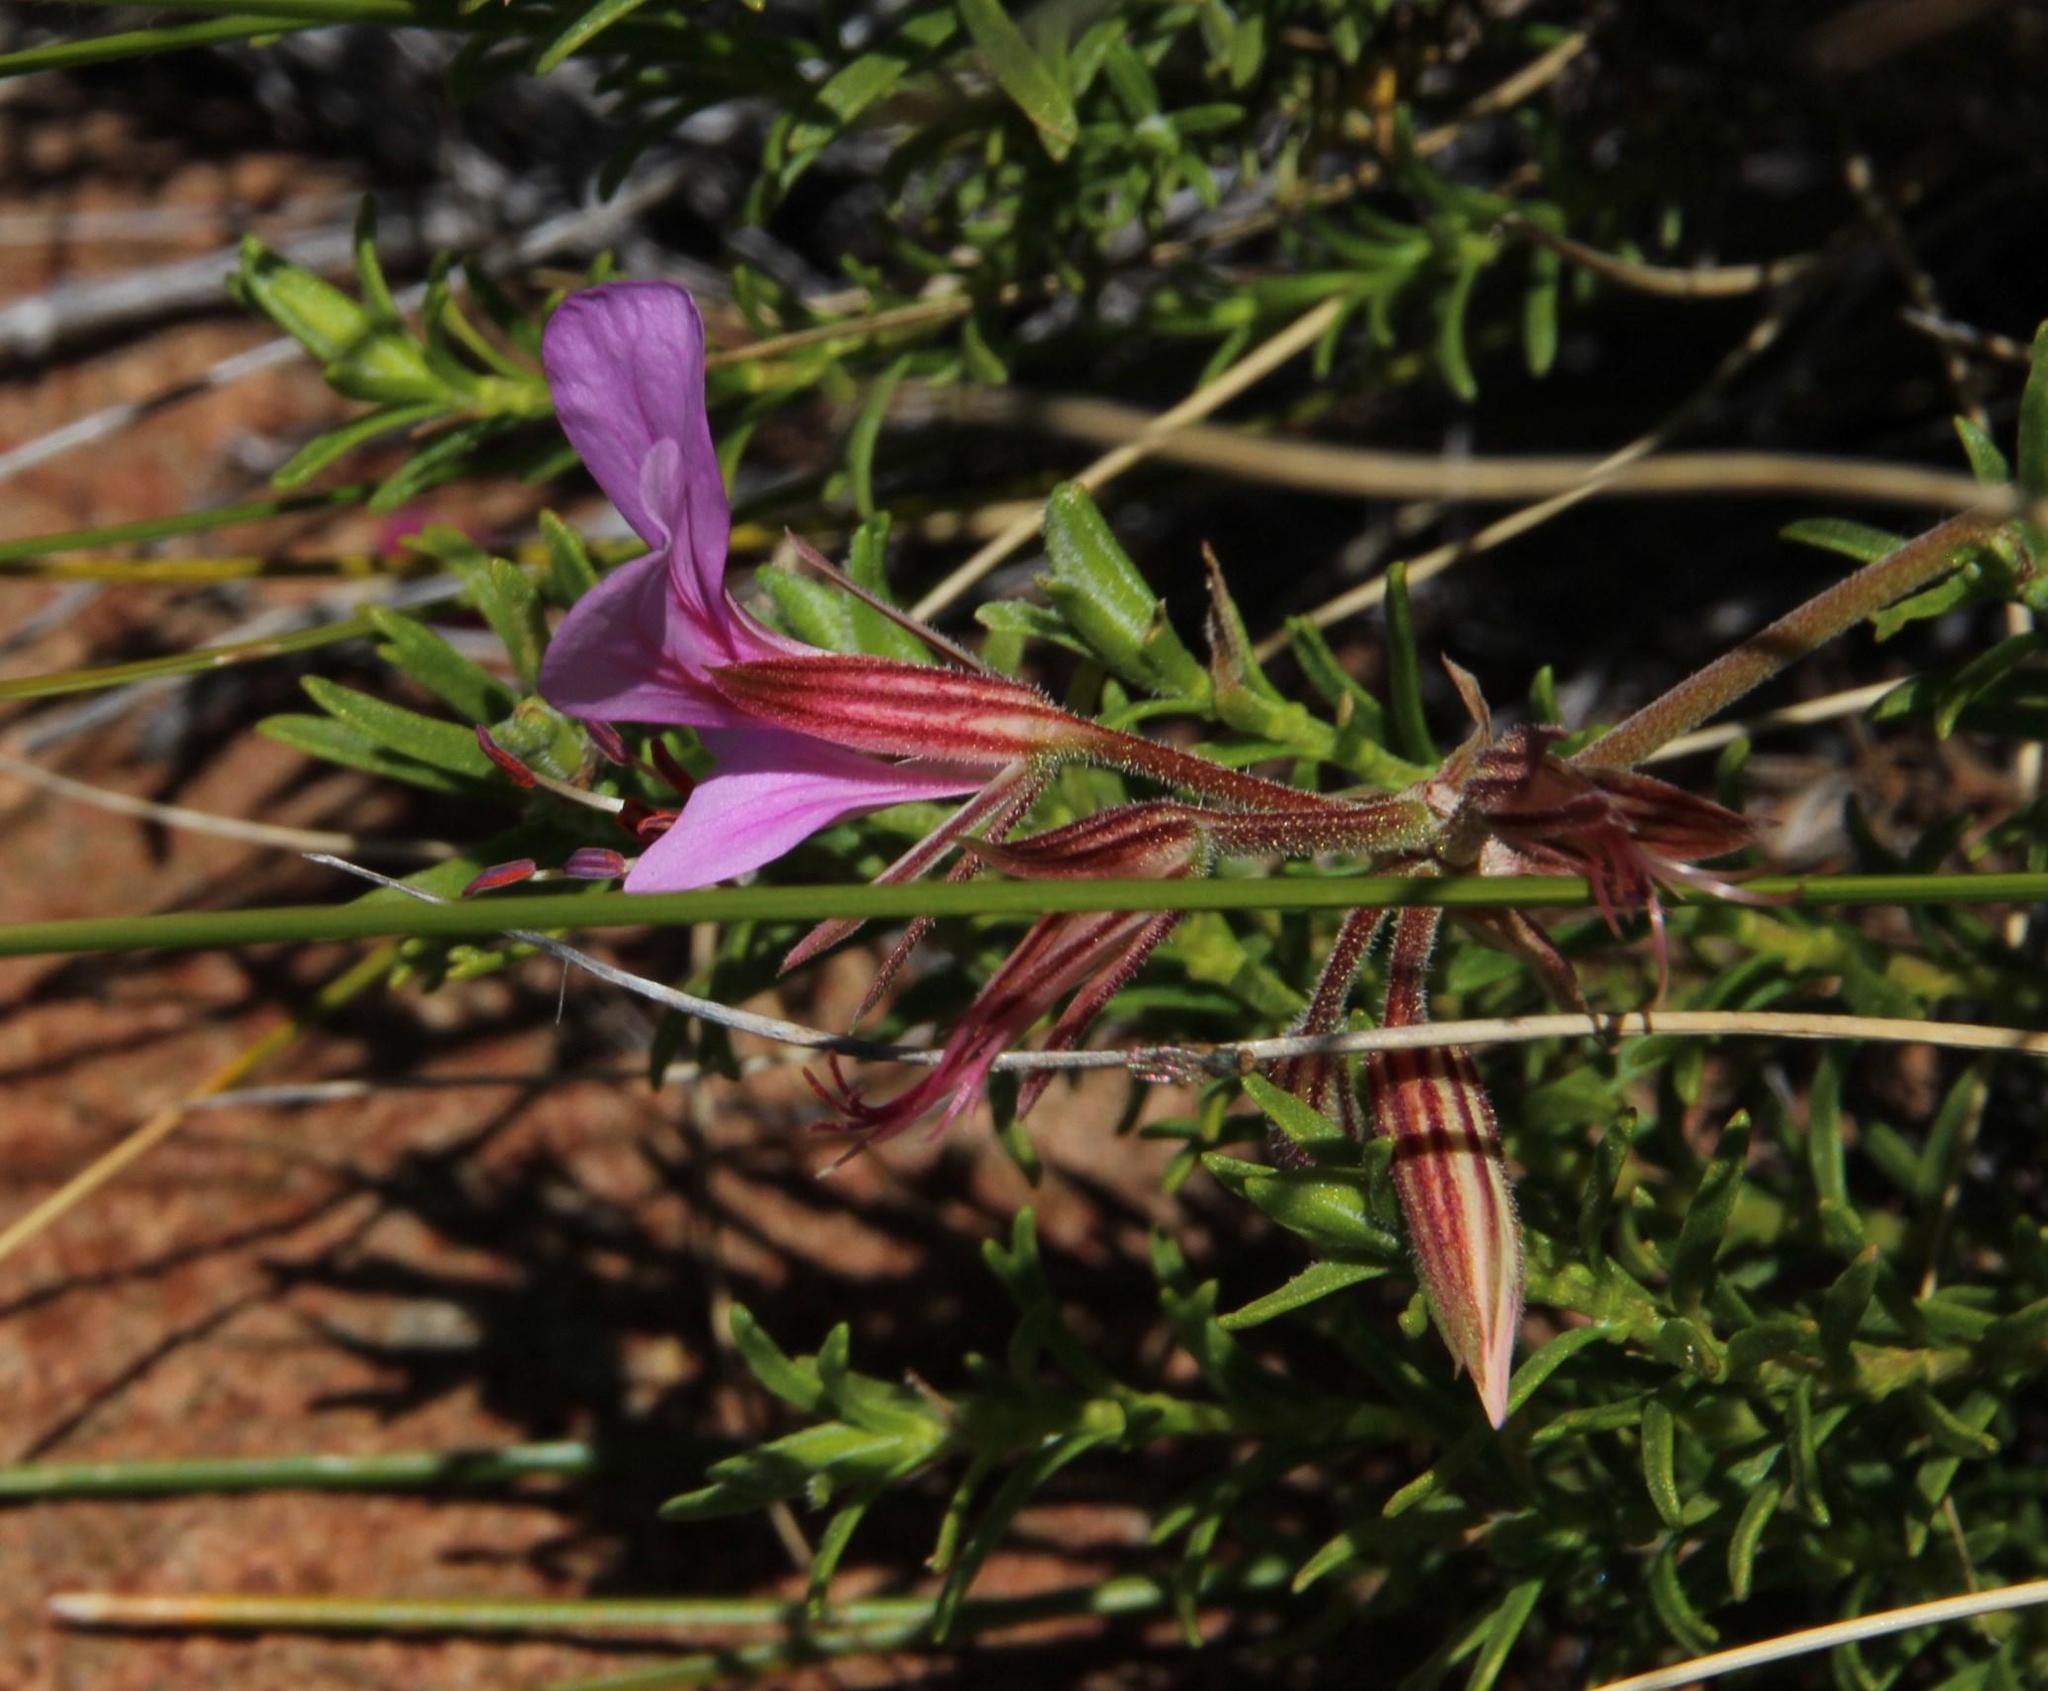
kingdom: Plantae
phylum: Tracheophyta
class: Magnoliopsida
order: Geraniales
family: Geraniaceae
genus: Pelargonium
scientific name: Pelargonium multicaule
